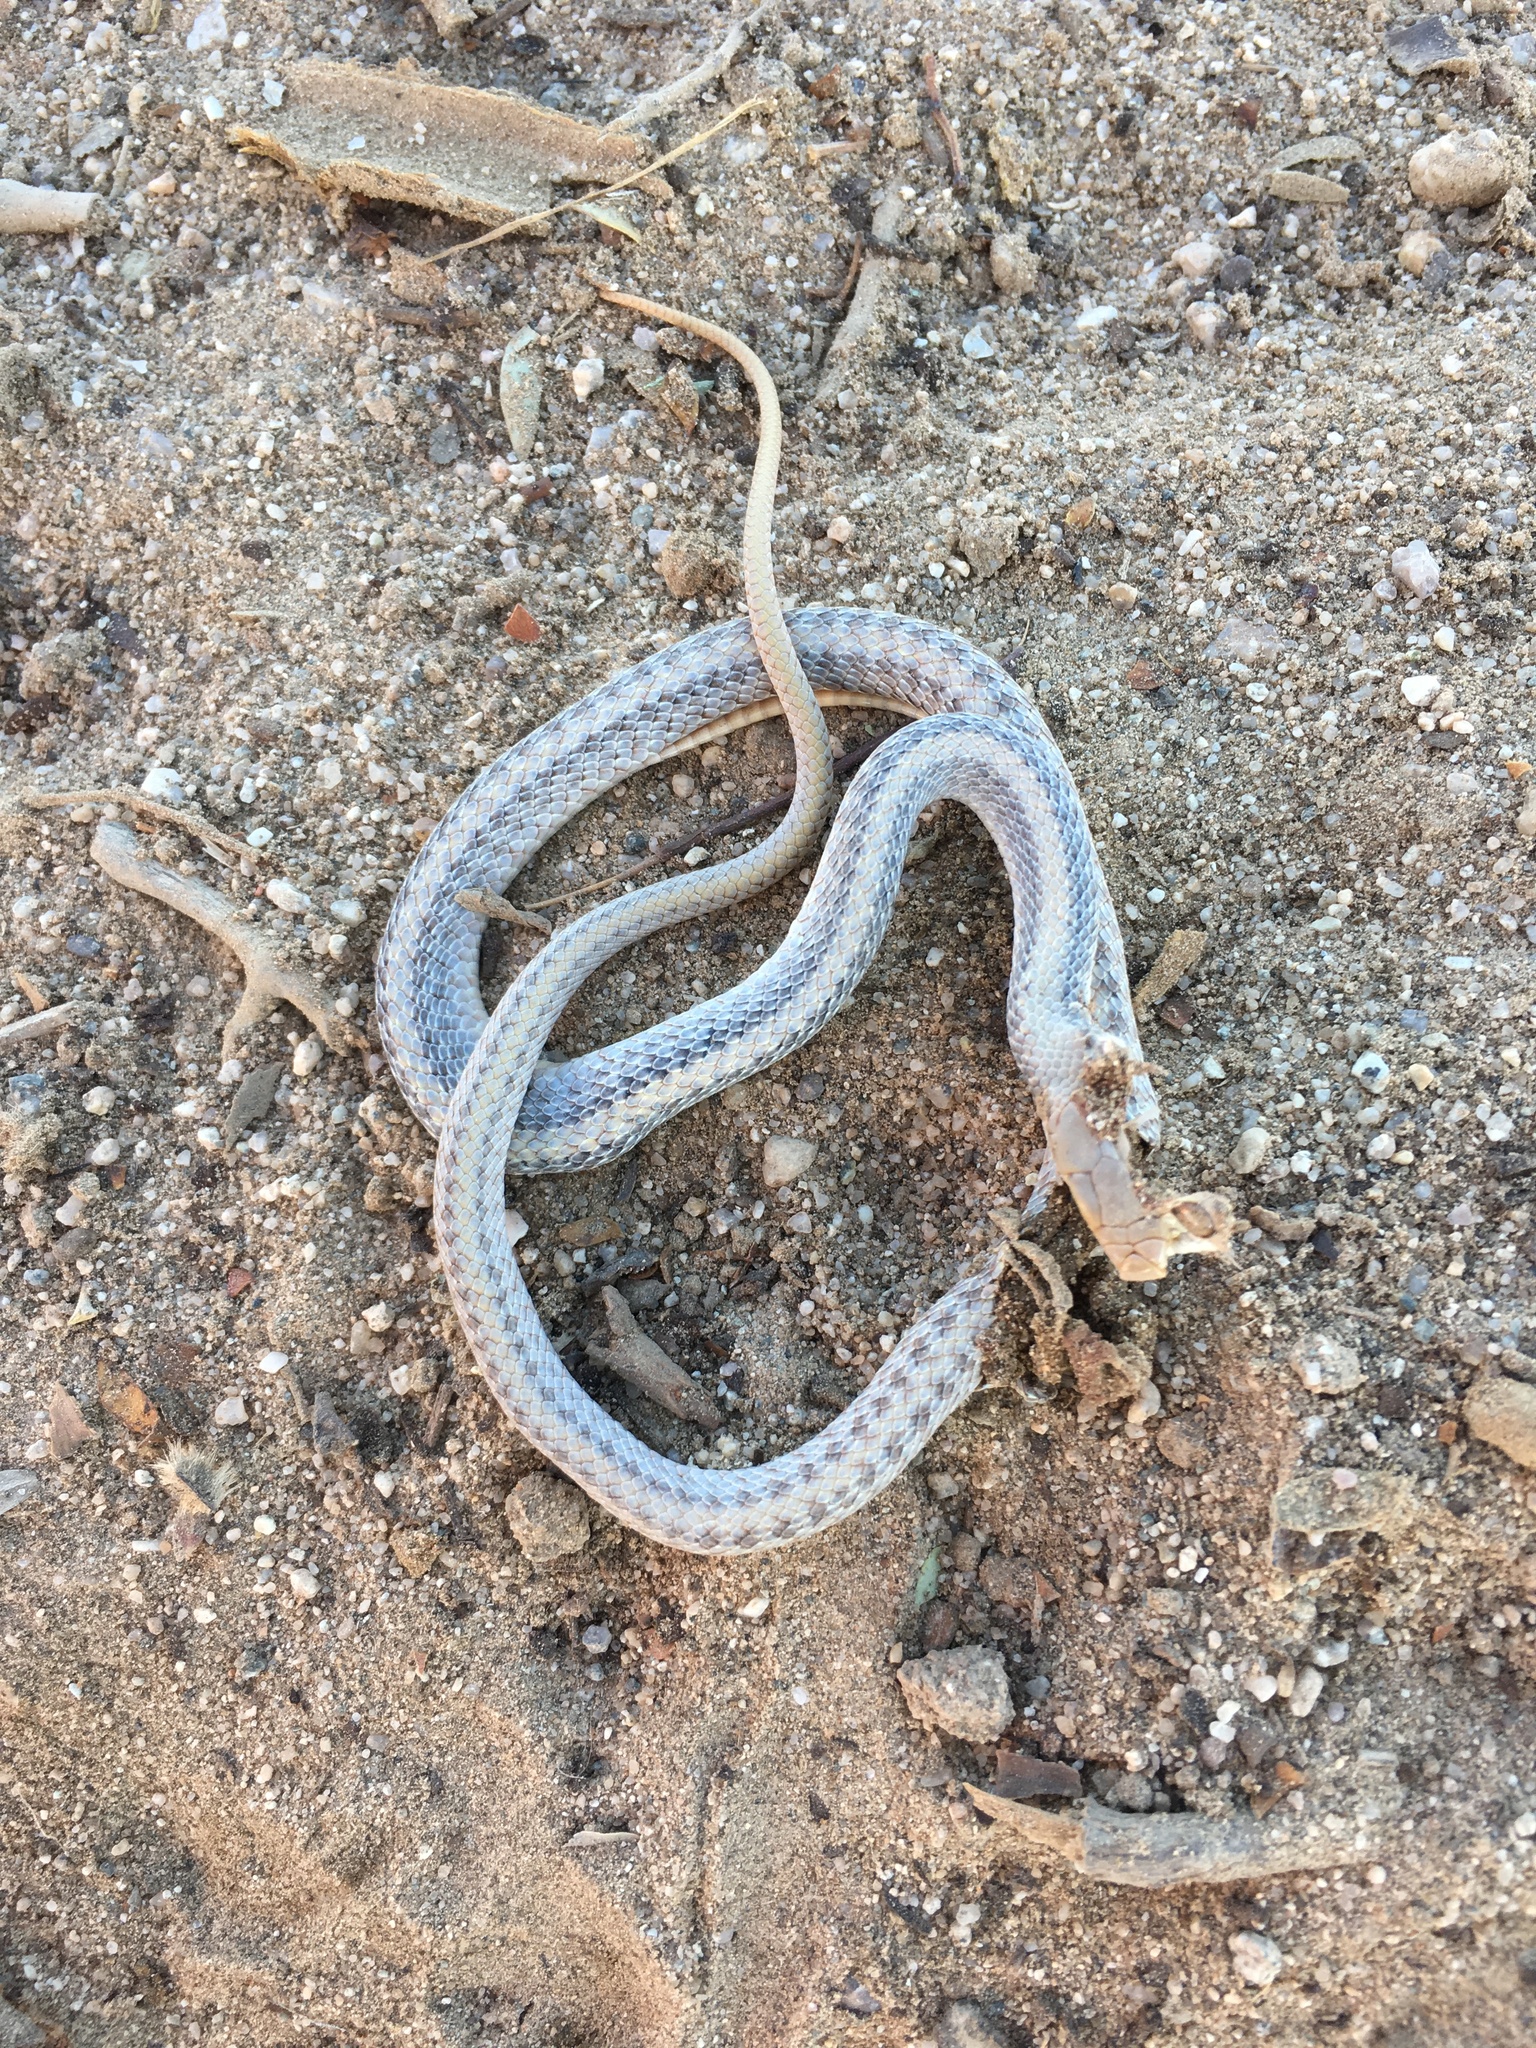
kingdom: Animalia
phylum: Chordata
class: Squamata
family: Colubridae
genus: Salvadora
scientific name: Salvadora hexalepis
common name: Western patchnose snake
